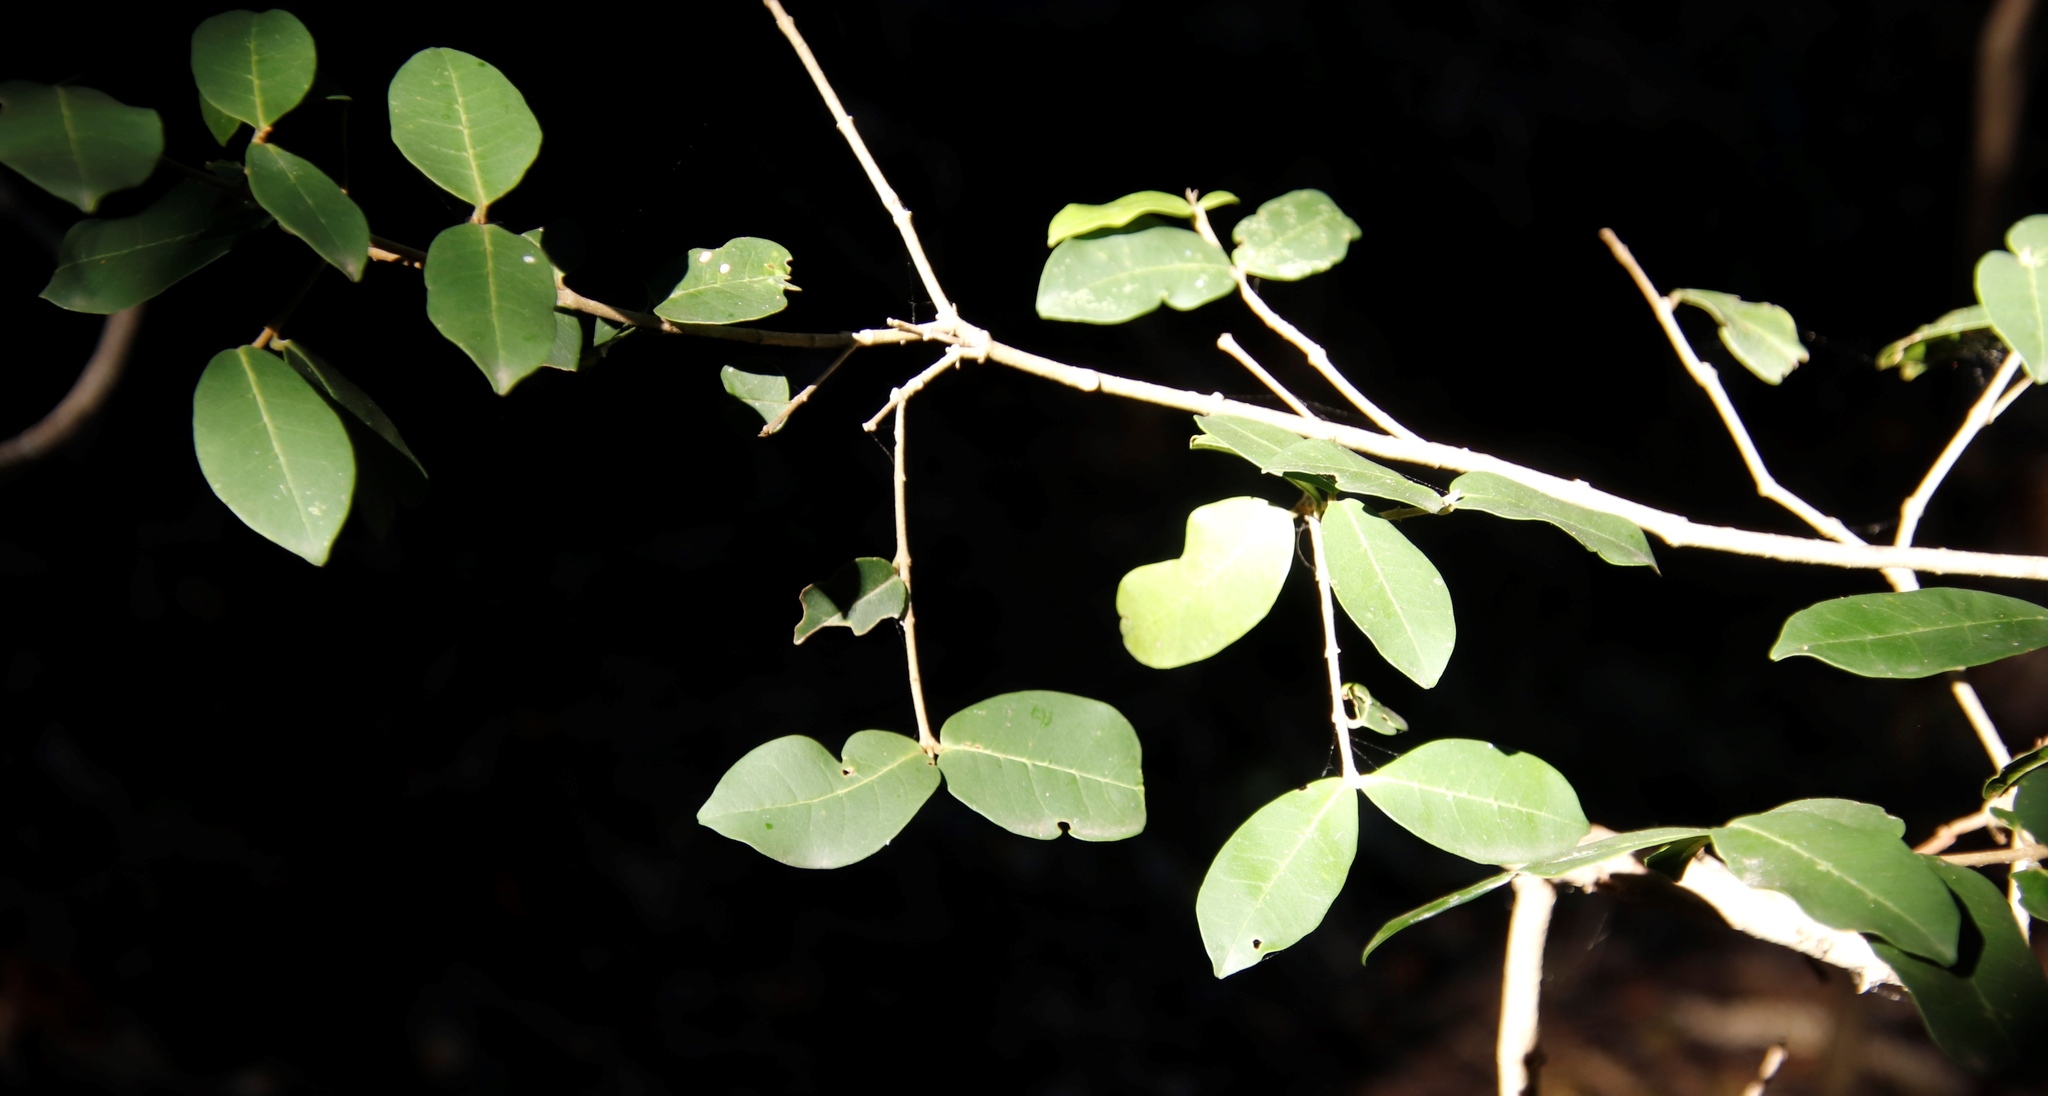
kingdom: Plantae
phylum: Tracheophyta
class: Magnoliopsida
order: Gentianales
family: Rubiaceae
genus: Afrocanthium
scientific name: Afrocanthium mundianum
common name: Rock-alder
